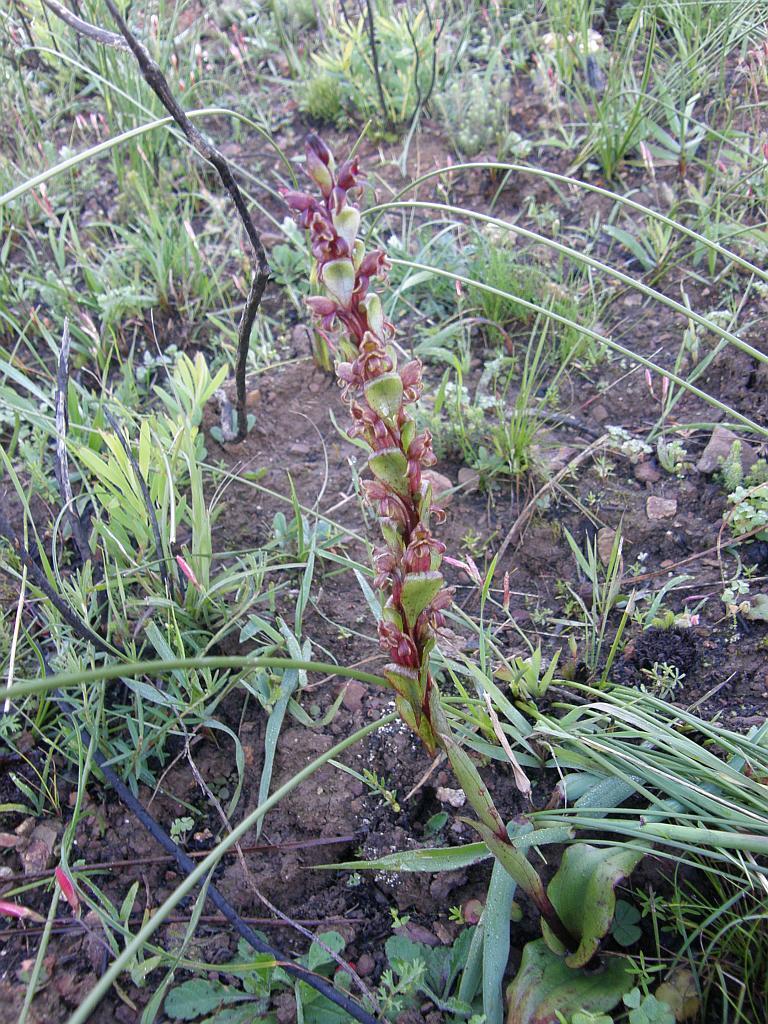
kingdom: Plantae
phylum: Tracheophyta
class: Liliopsida
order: Asparagales
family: Orchidaceae
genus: Satyrium
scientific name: Satyrium lupulinum
